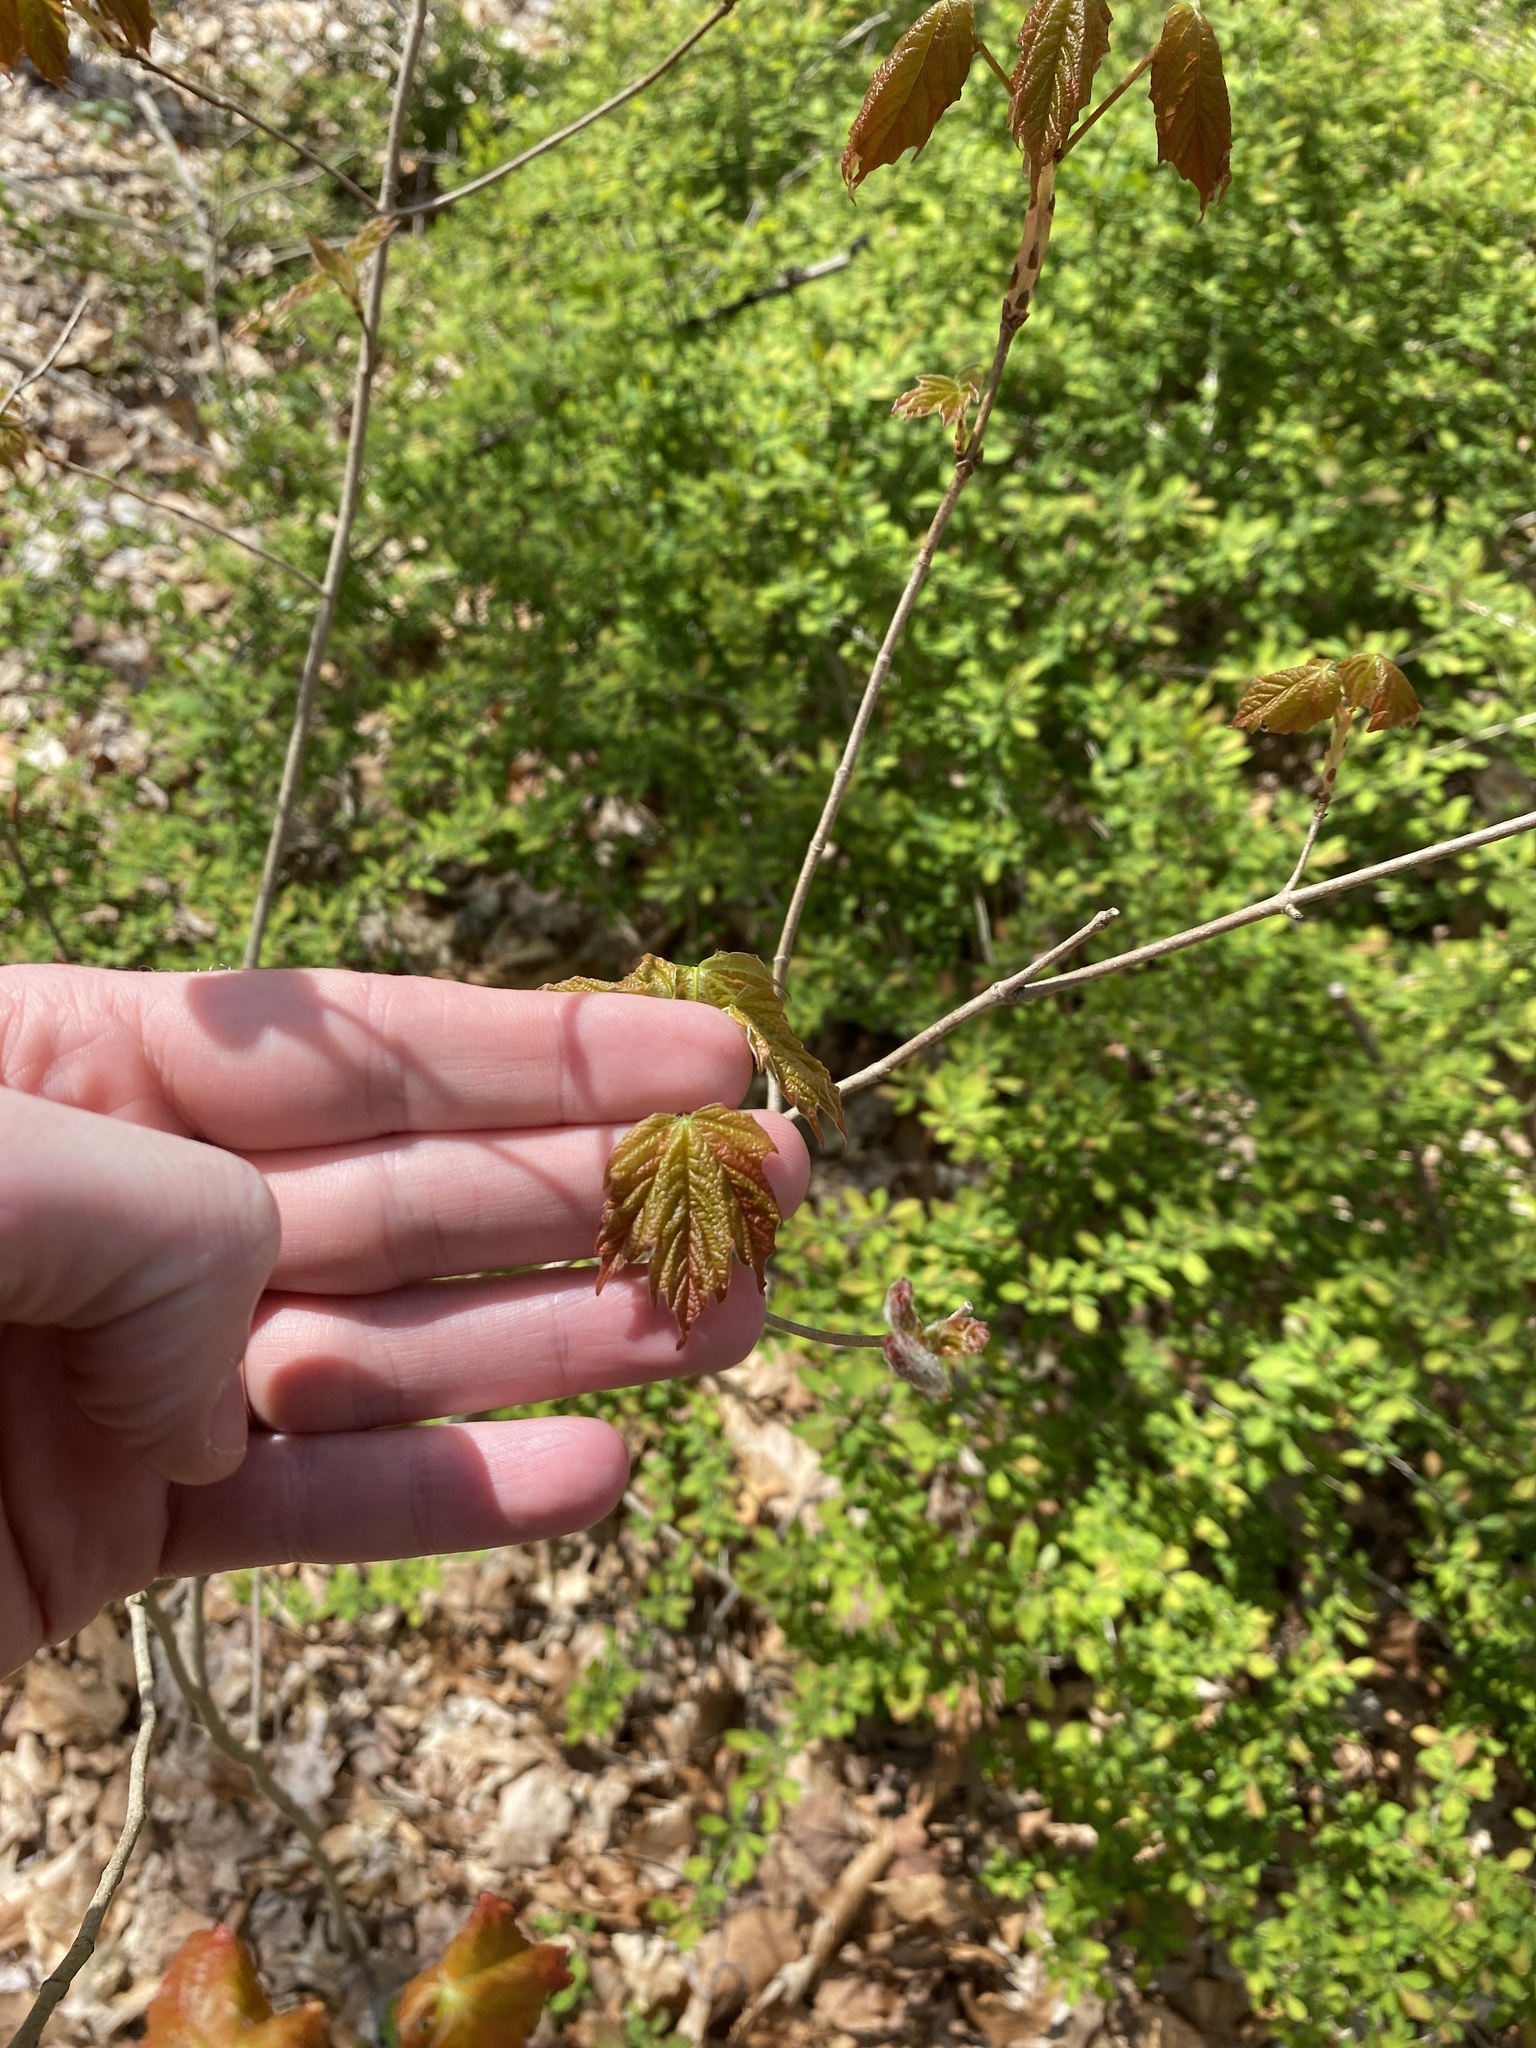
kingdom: Plantae
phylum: Tracheophyta
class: Magnoliopsida
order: Sapindales
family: Sapindaceae
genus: Acer
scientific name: Acer saccharum
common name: Sugar maple
